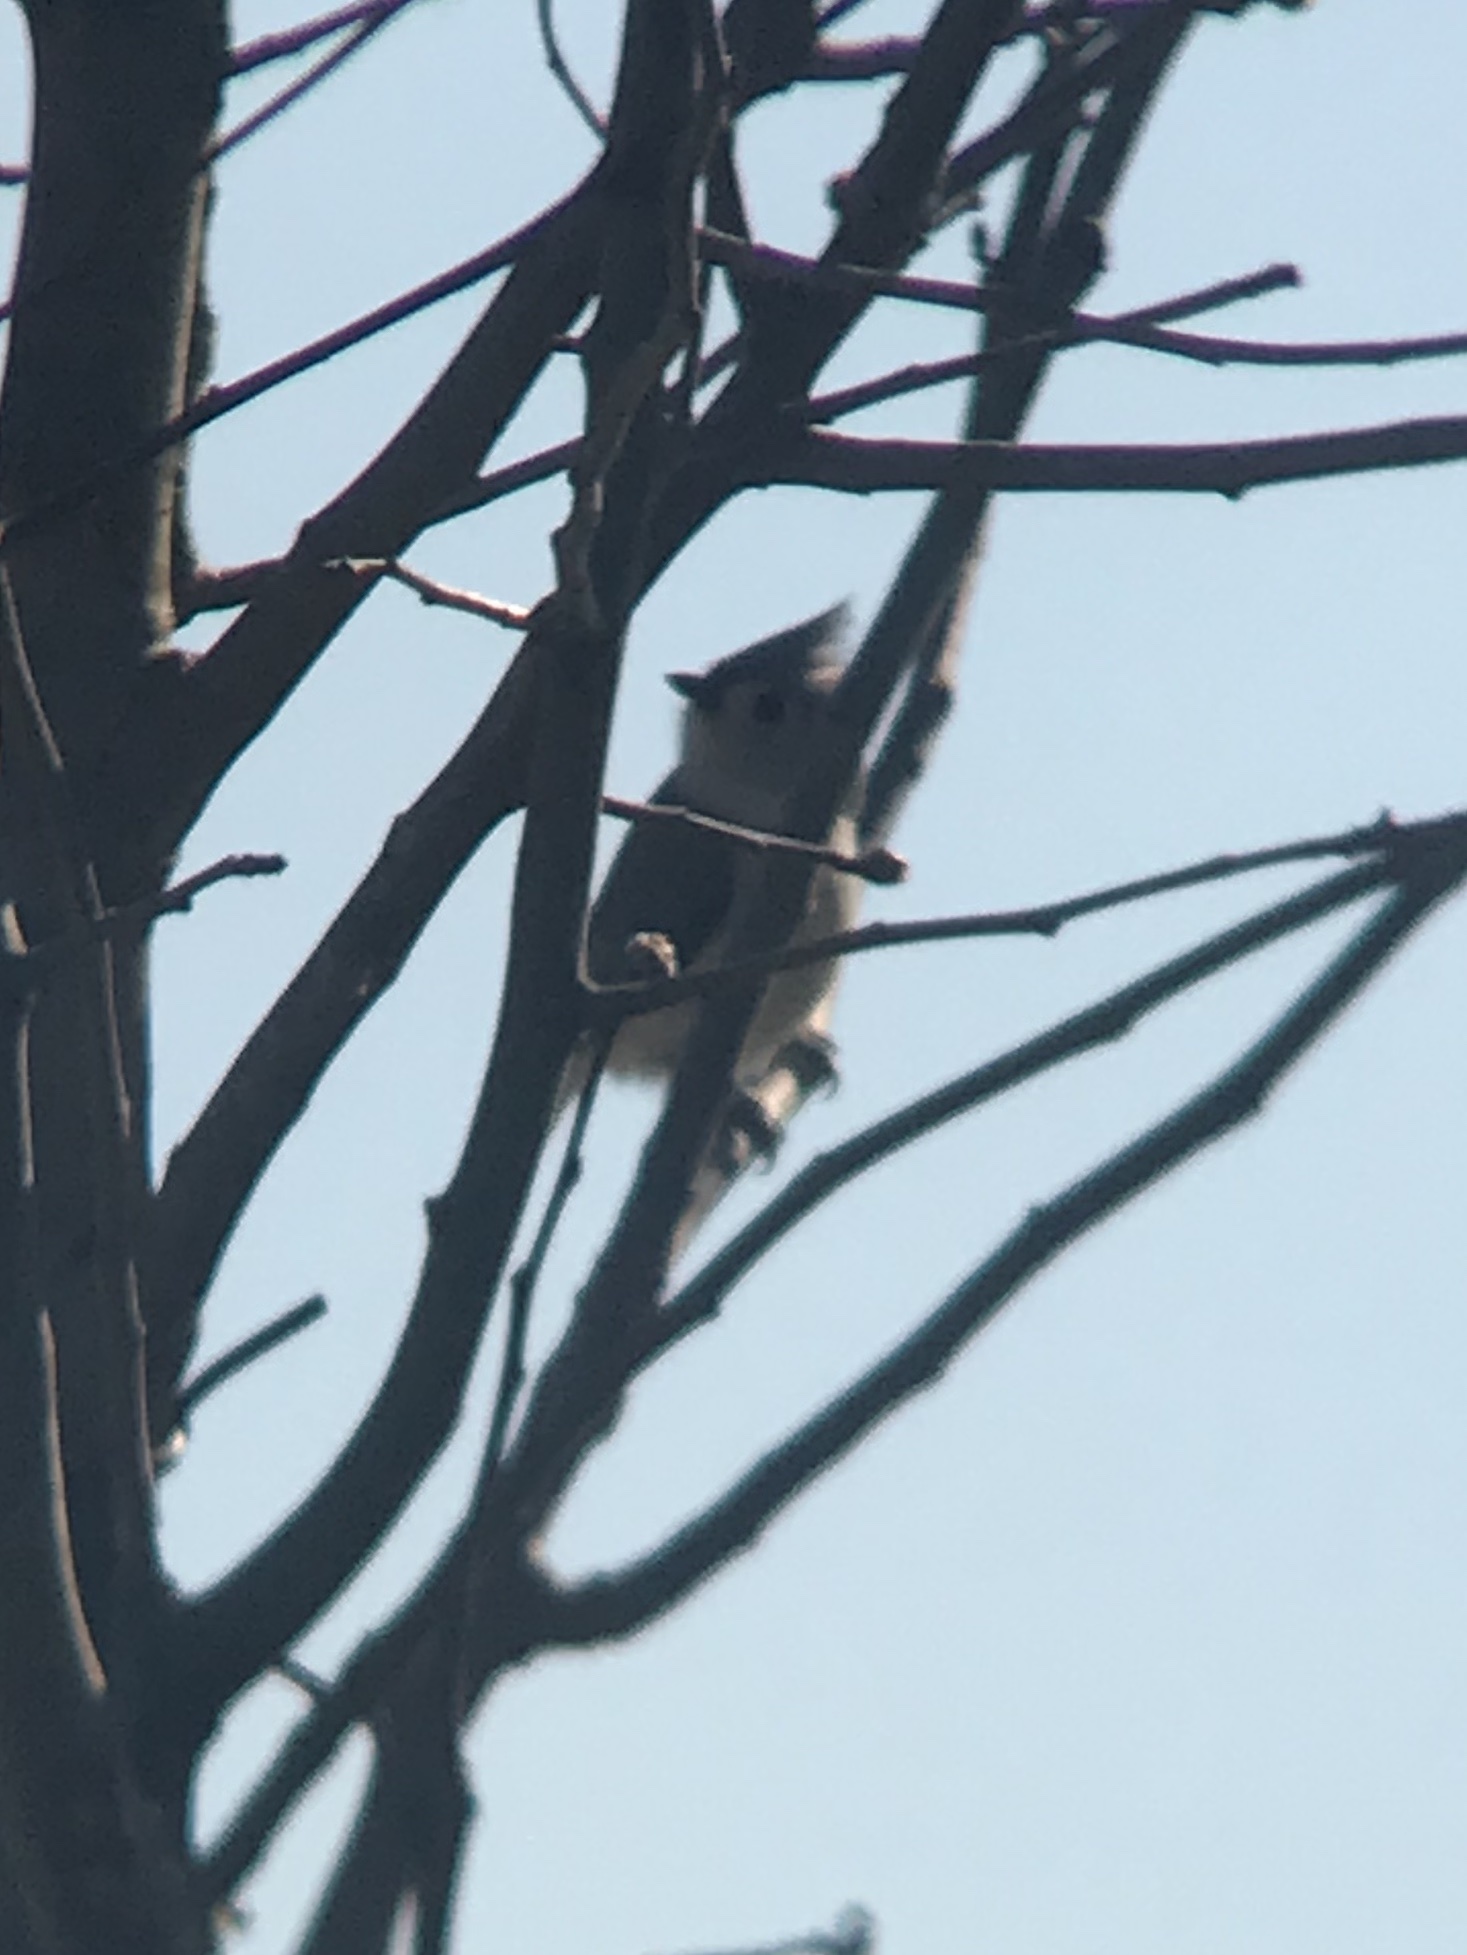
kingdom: Animalia
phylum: Chordata
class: Aves
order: Passeriformes
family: Paridae
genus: Baeolophus
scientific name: Baeolophus bicolor
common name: Tufted titmouse
